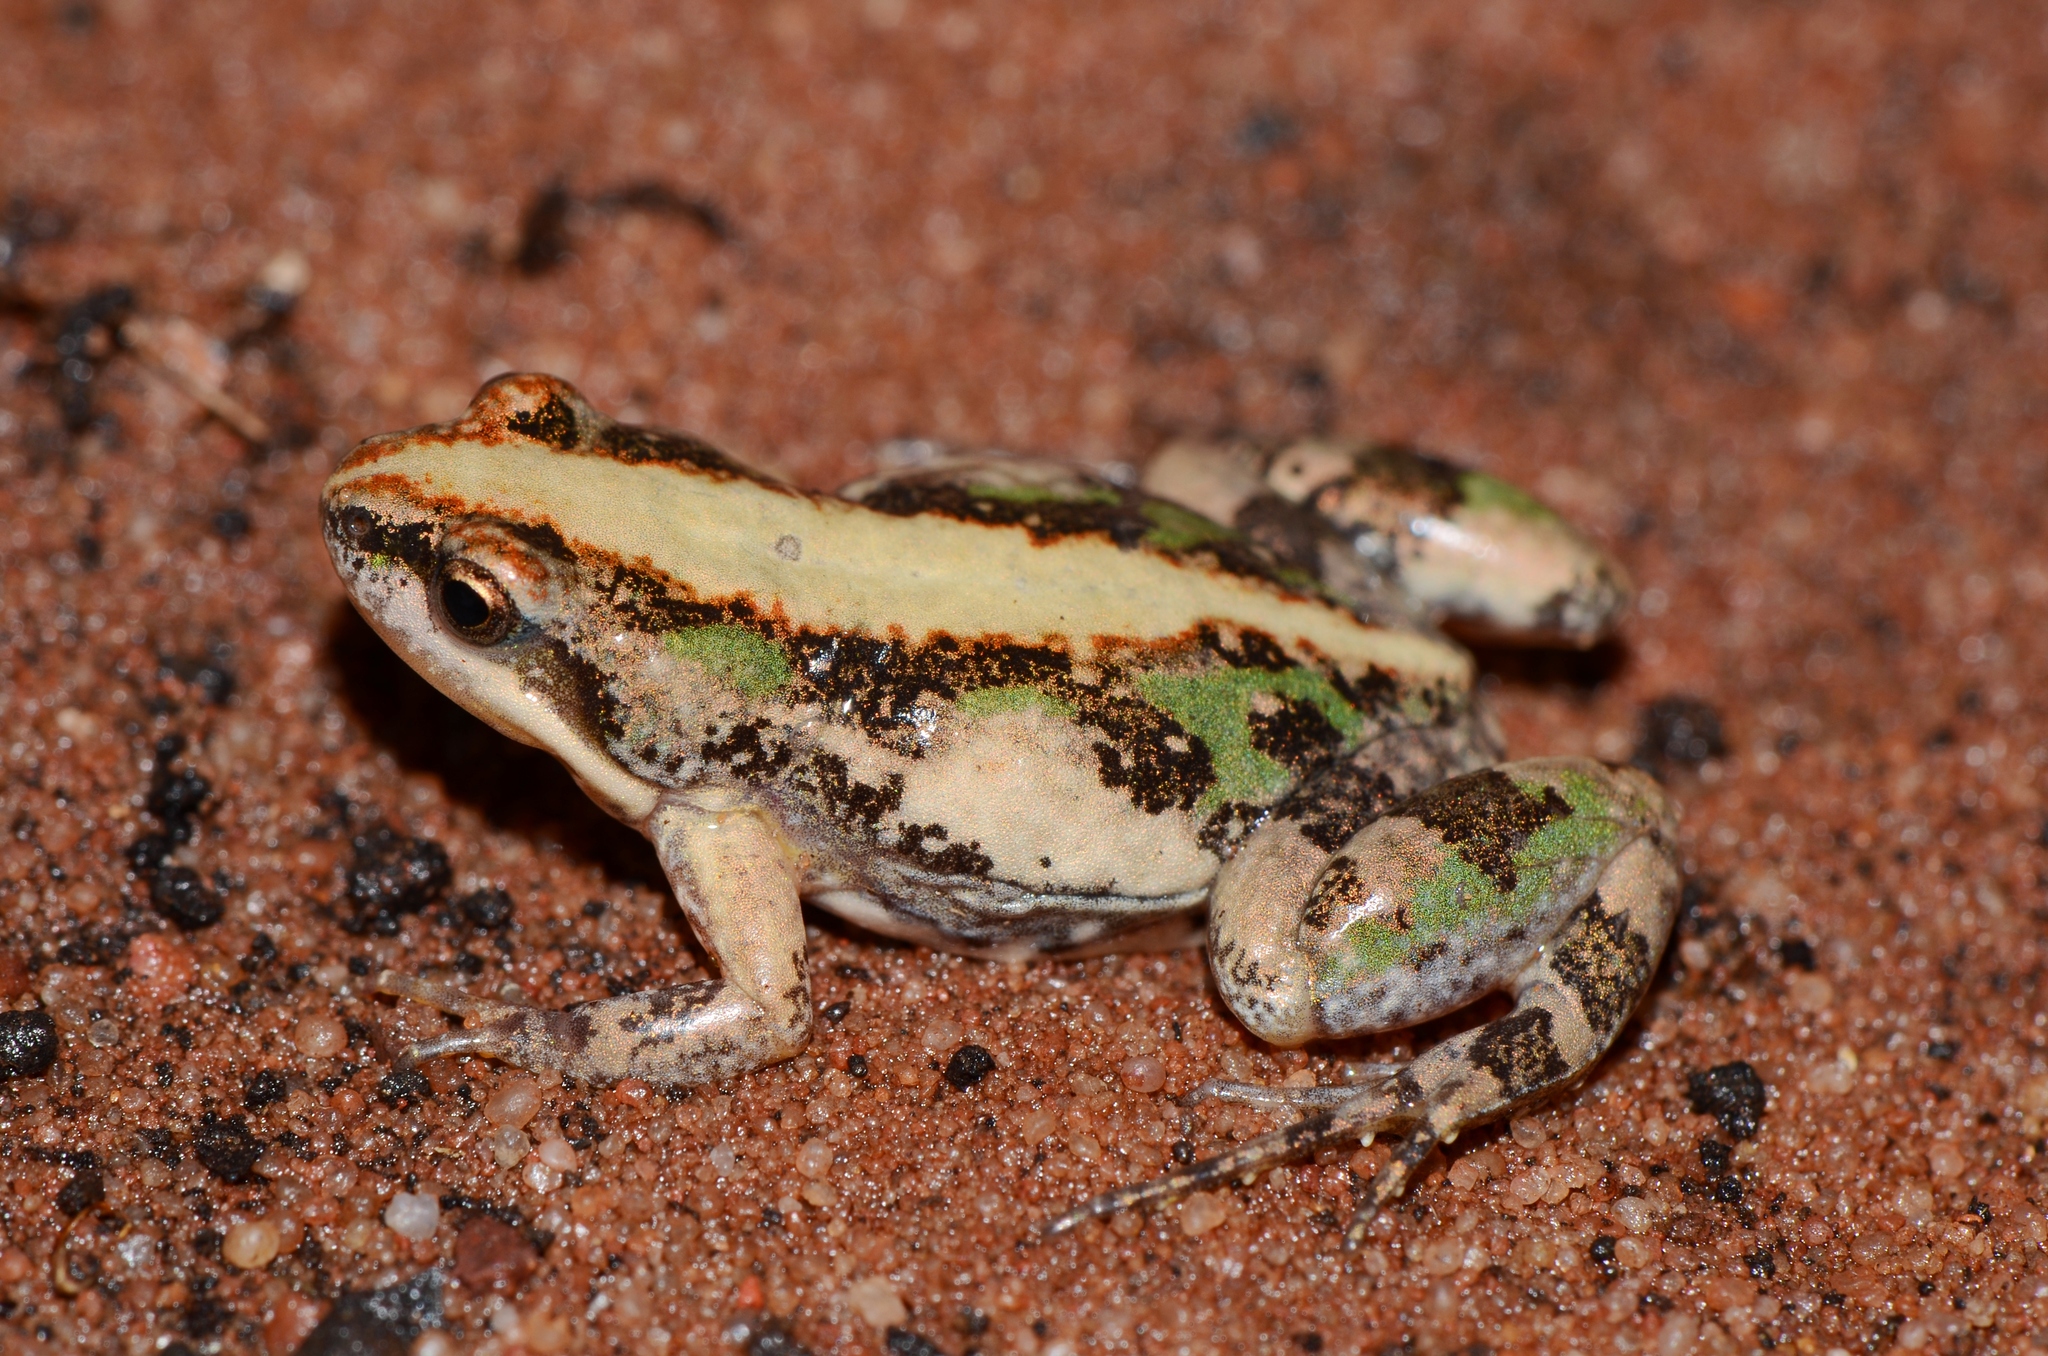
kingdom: Animalia
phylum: Chordata
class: Amphibia
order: Anura
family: Pyxicephalidae
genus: Cacosternum
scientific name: Cacosternum boettgeri
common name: Boettger's frog
